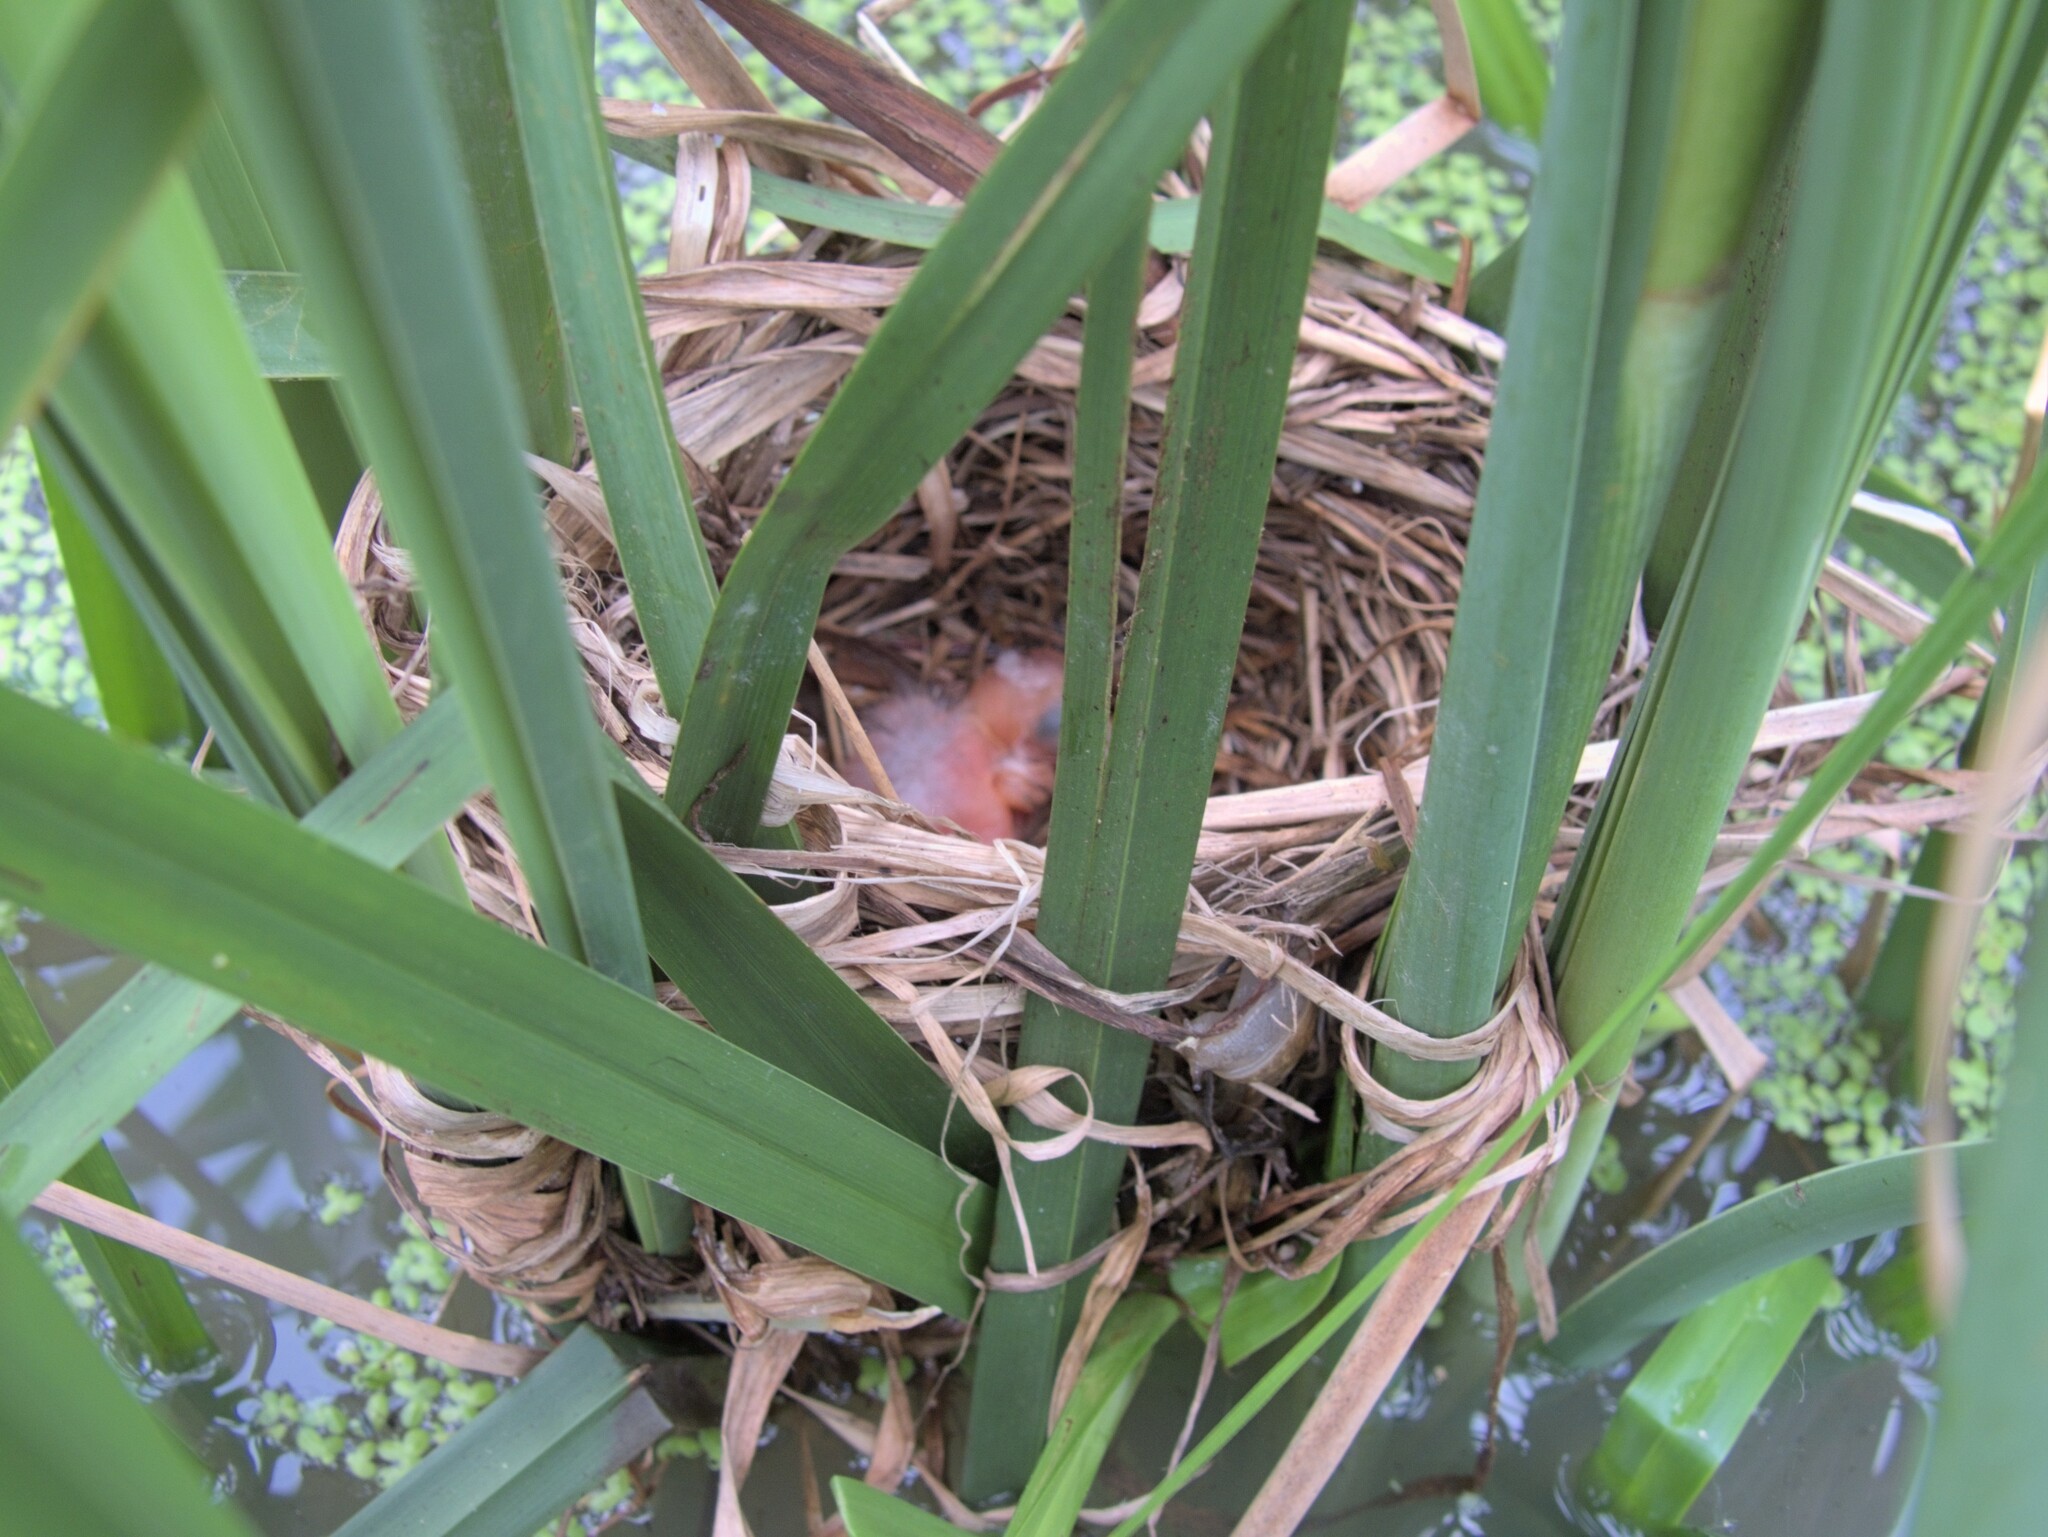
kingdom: Animalia
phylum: Chordata
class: Aves
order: Passeriformes
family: Icteridae
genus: Agelaius
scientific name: Agelaius phoeniceus
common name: Red-winged blackbird
